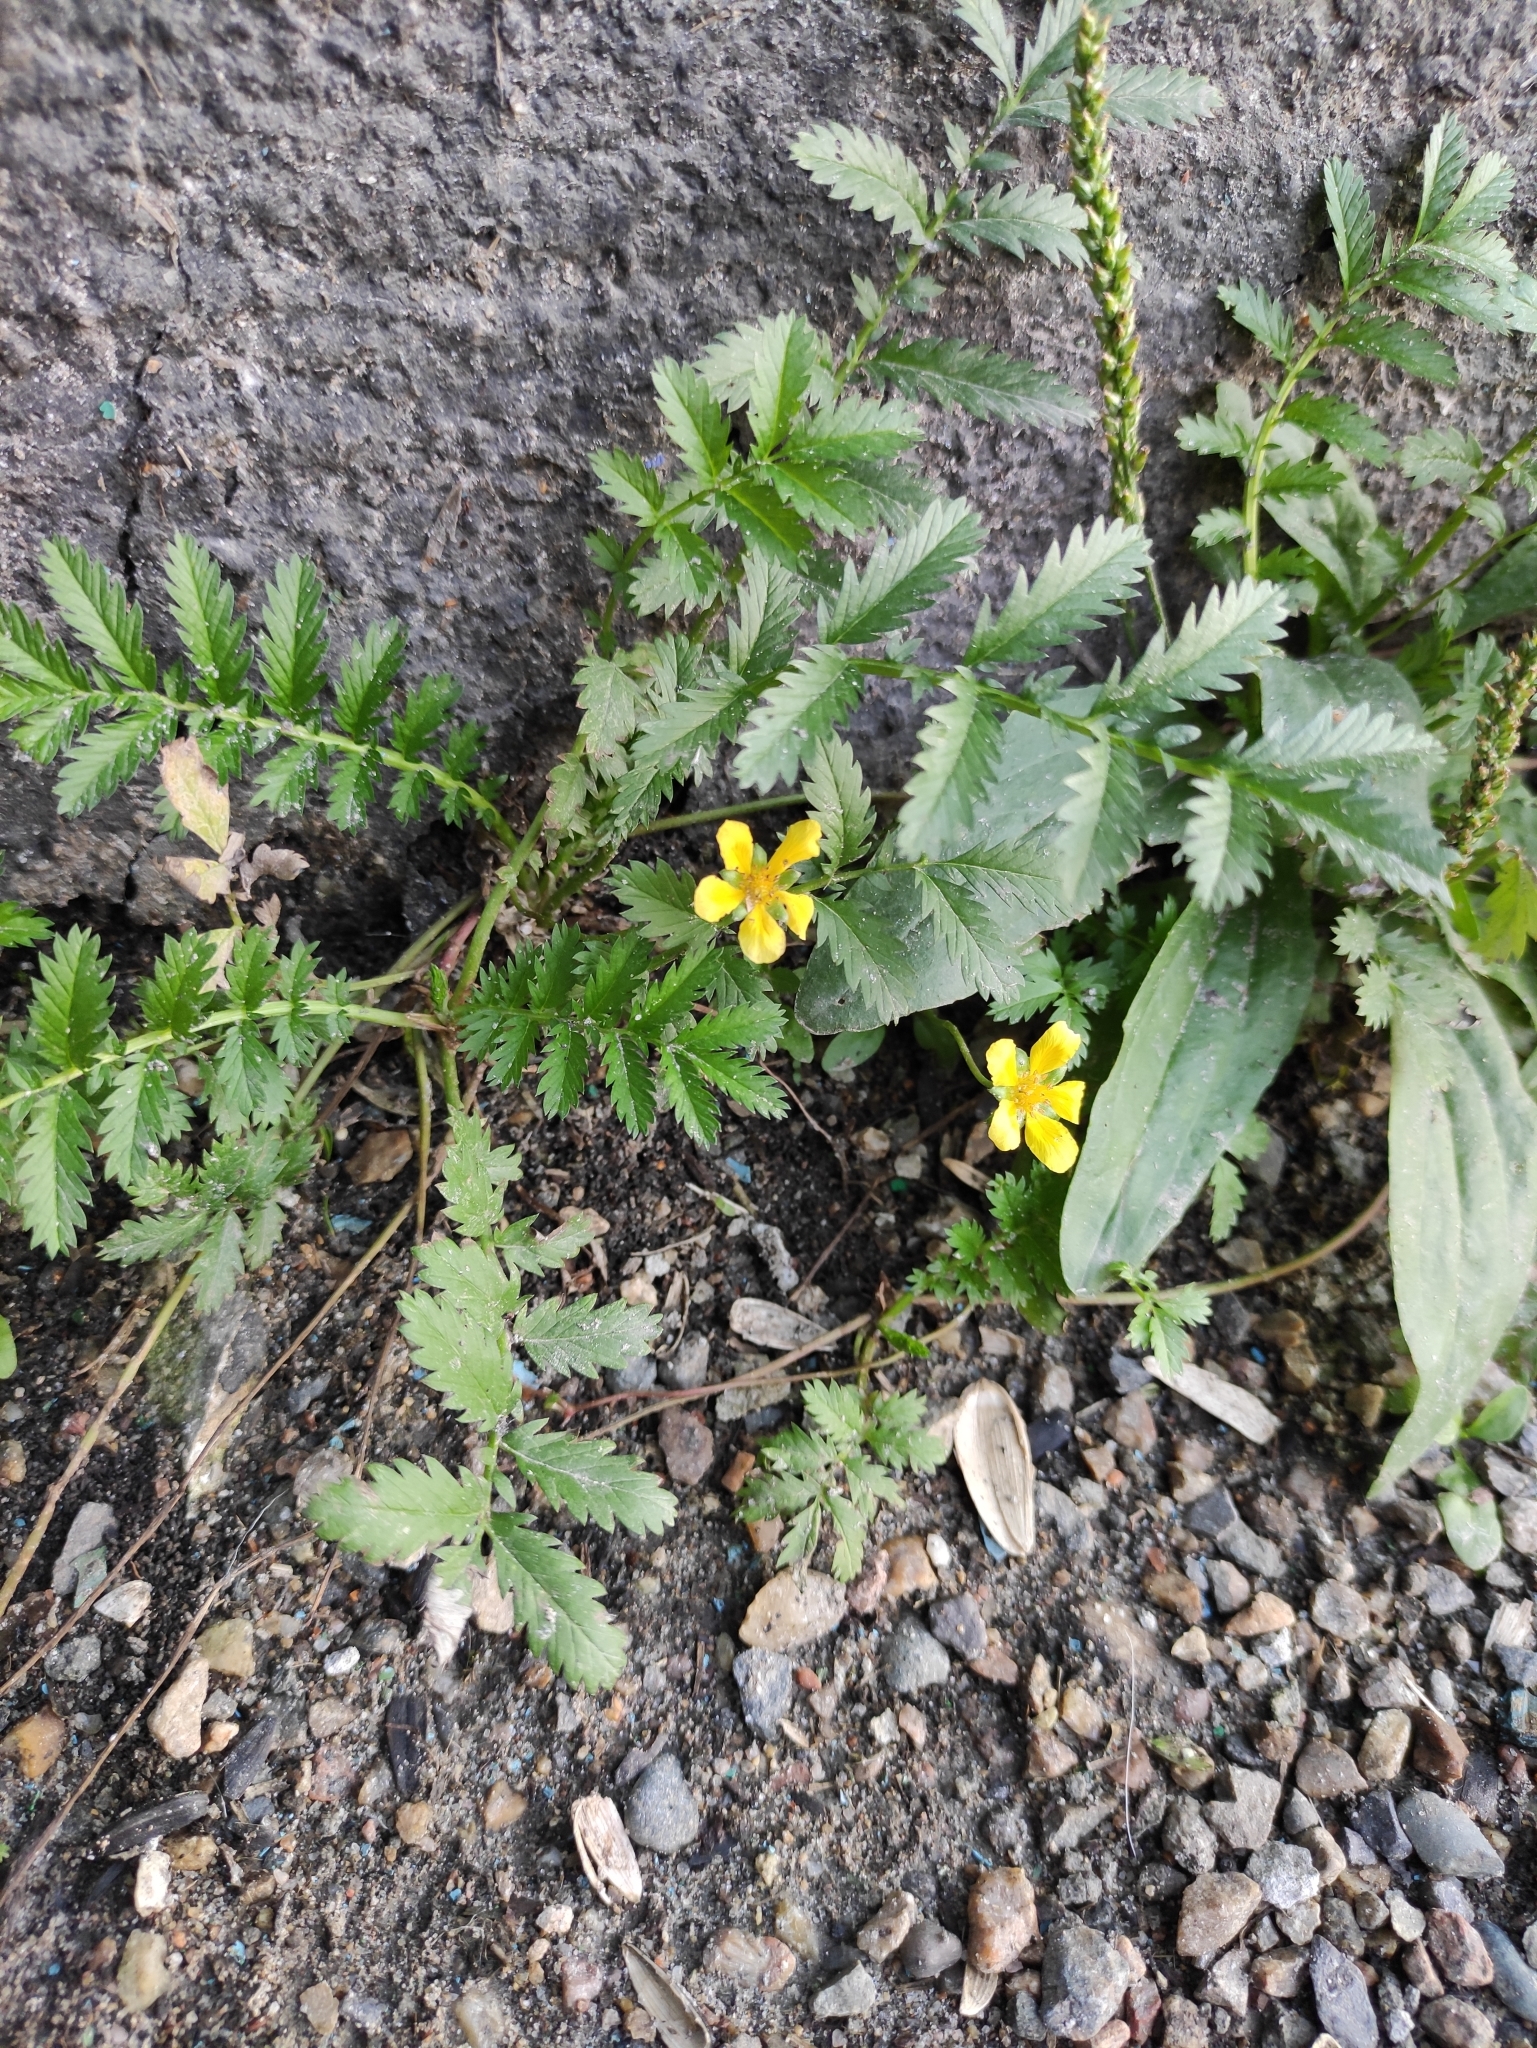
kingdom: Plantae
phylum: Tracheophyta
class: Magnoliopsida
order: Rosales
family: Rosaceae
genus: Argentina
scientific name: Argentina anserina
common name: Common silverweed
